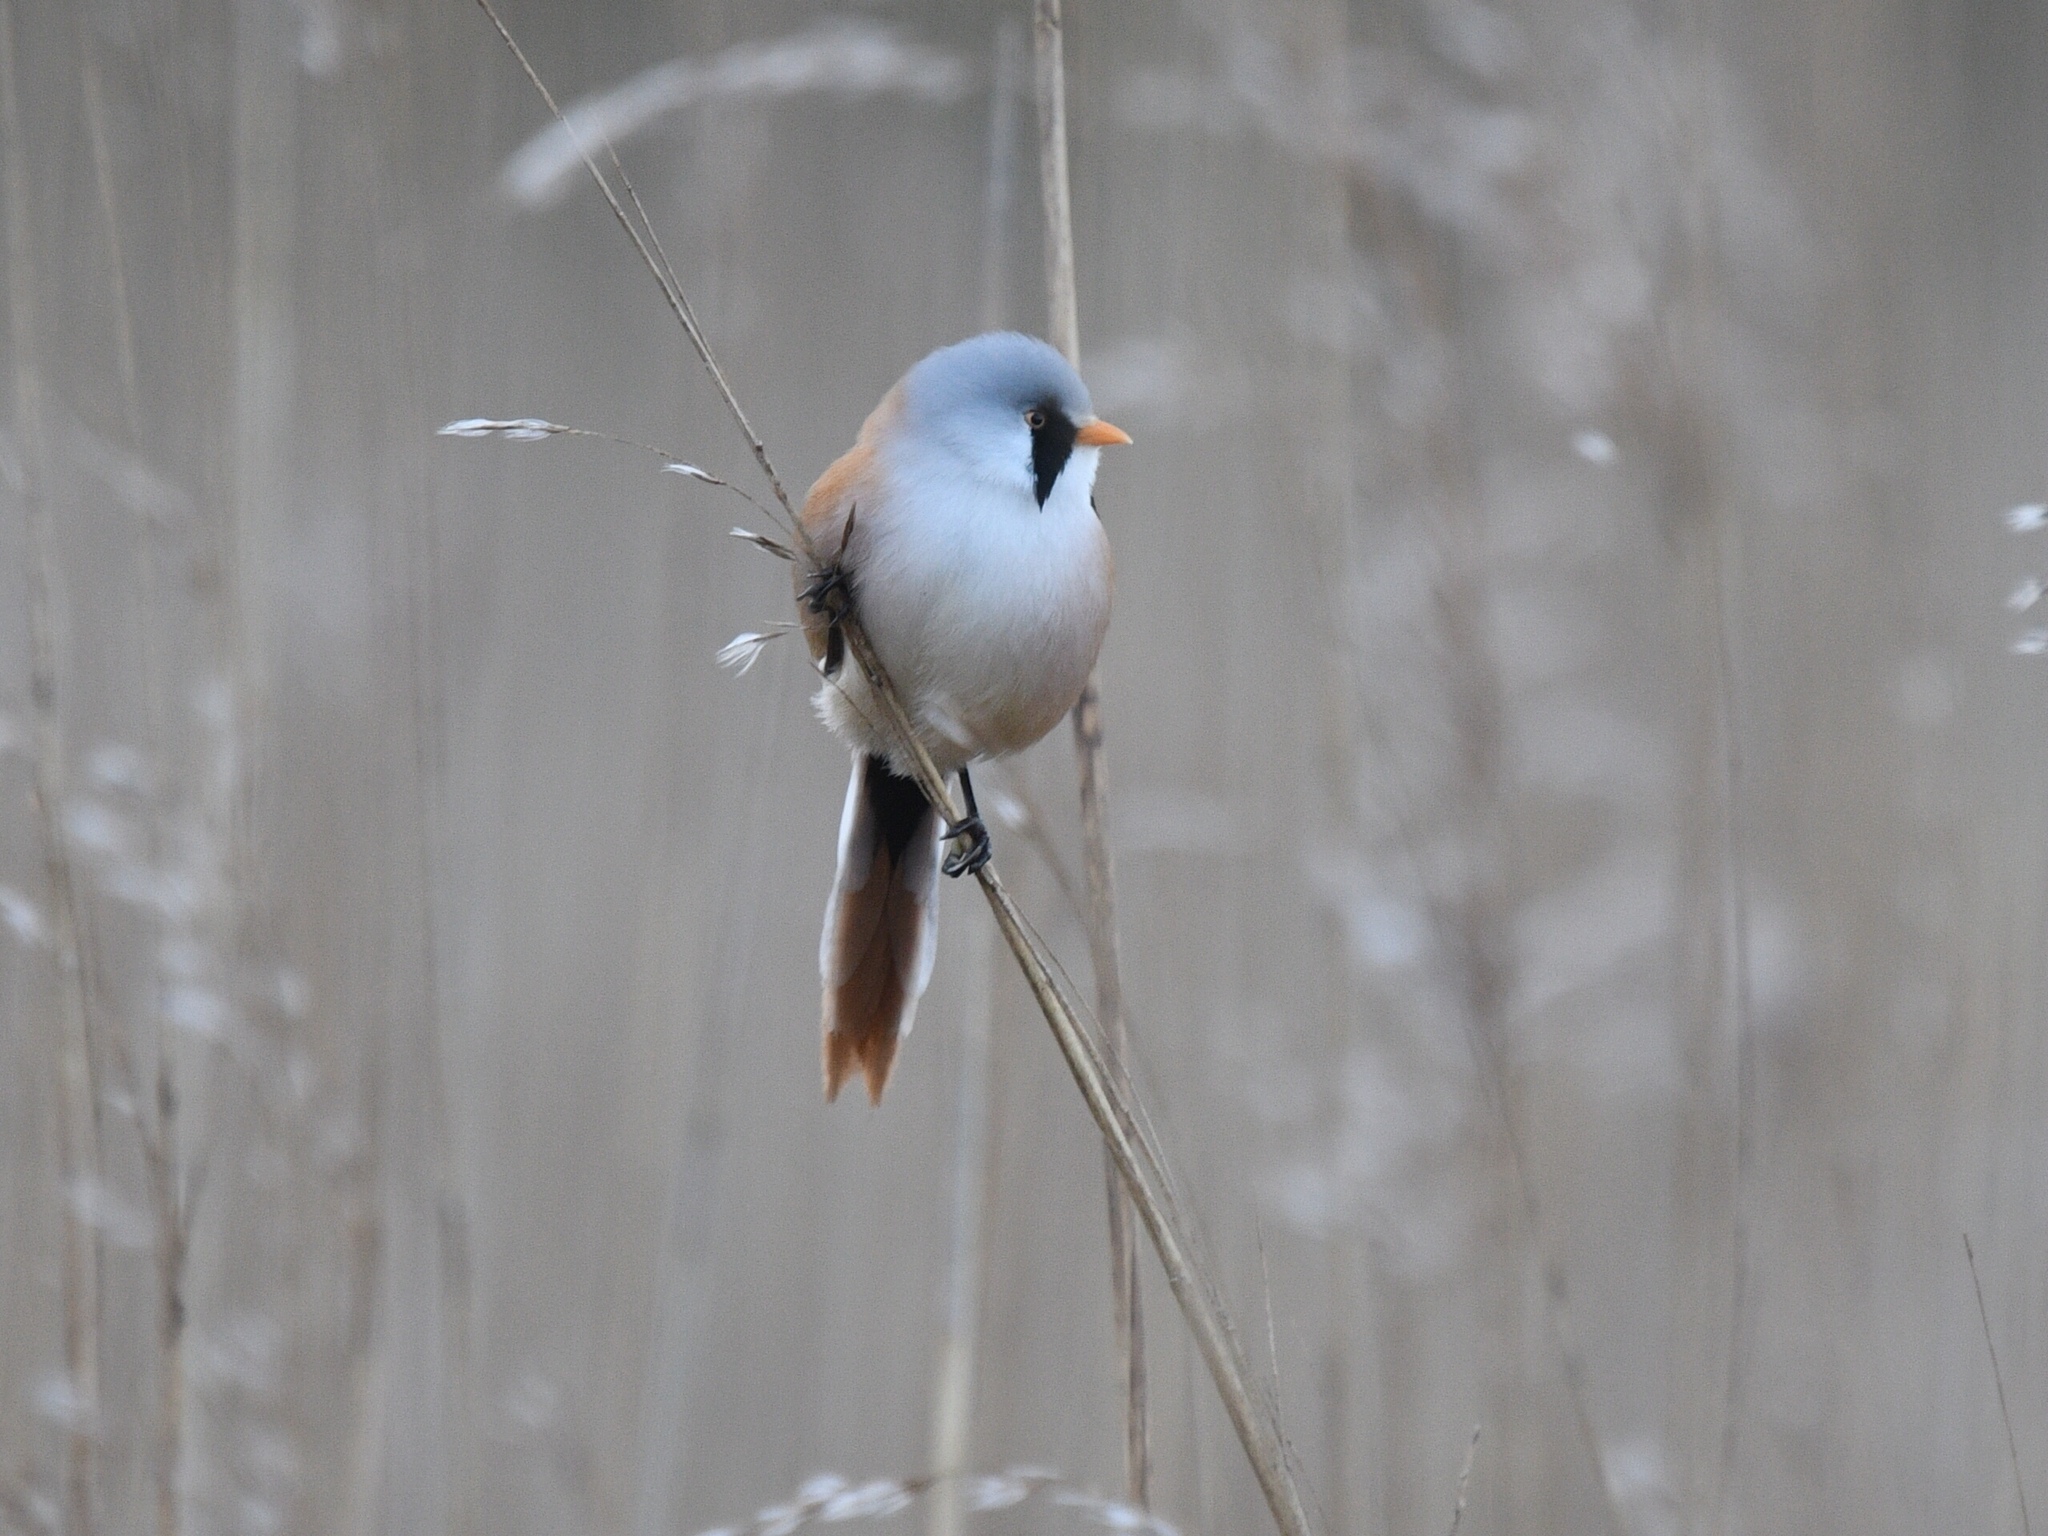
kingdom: Animalia
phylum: Chordata
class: Aves
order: Passeriformes
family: Panuridae
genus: Panurus
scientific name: Panurus biarmicus
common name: Bearded reedling
